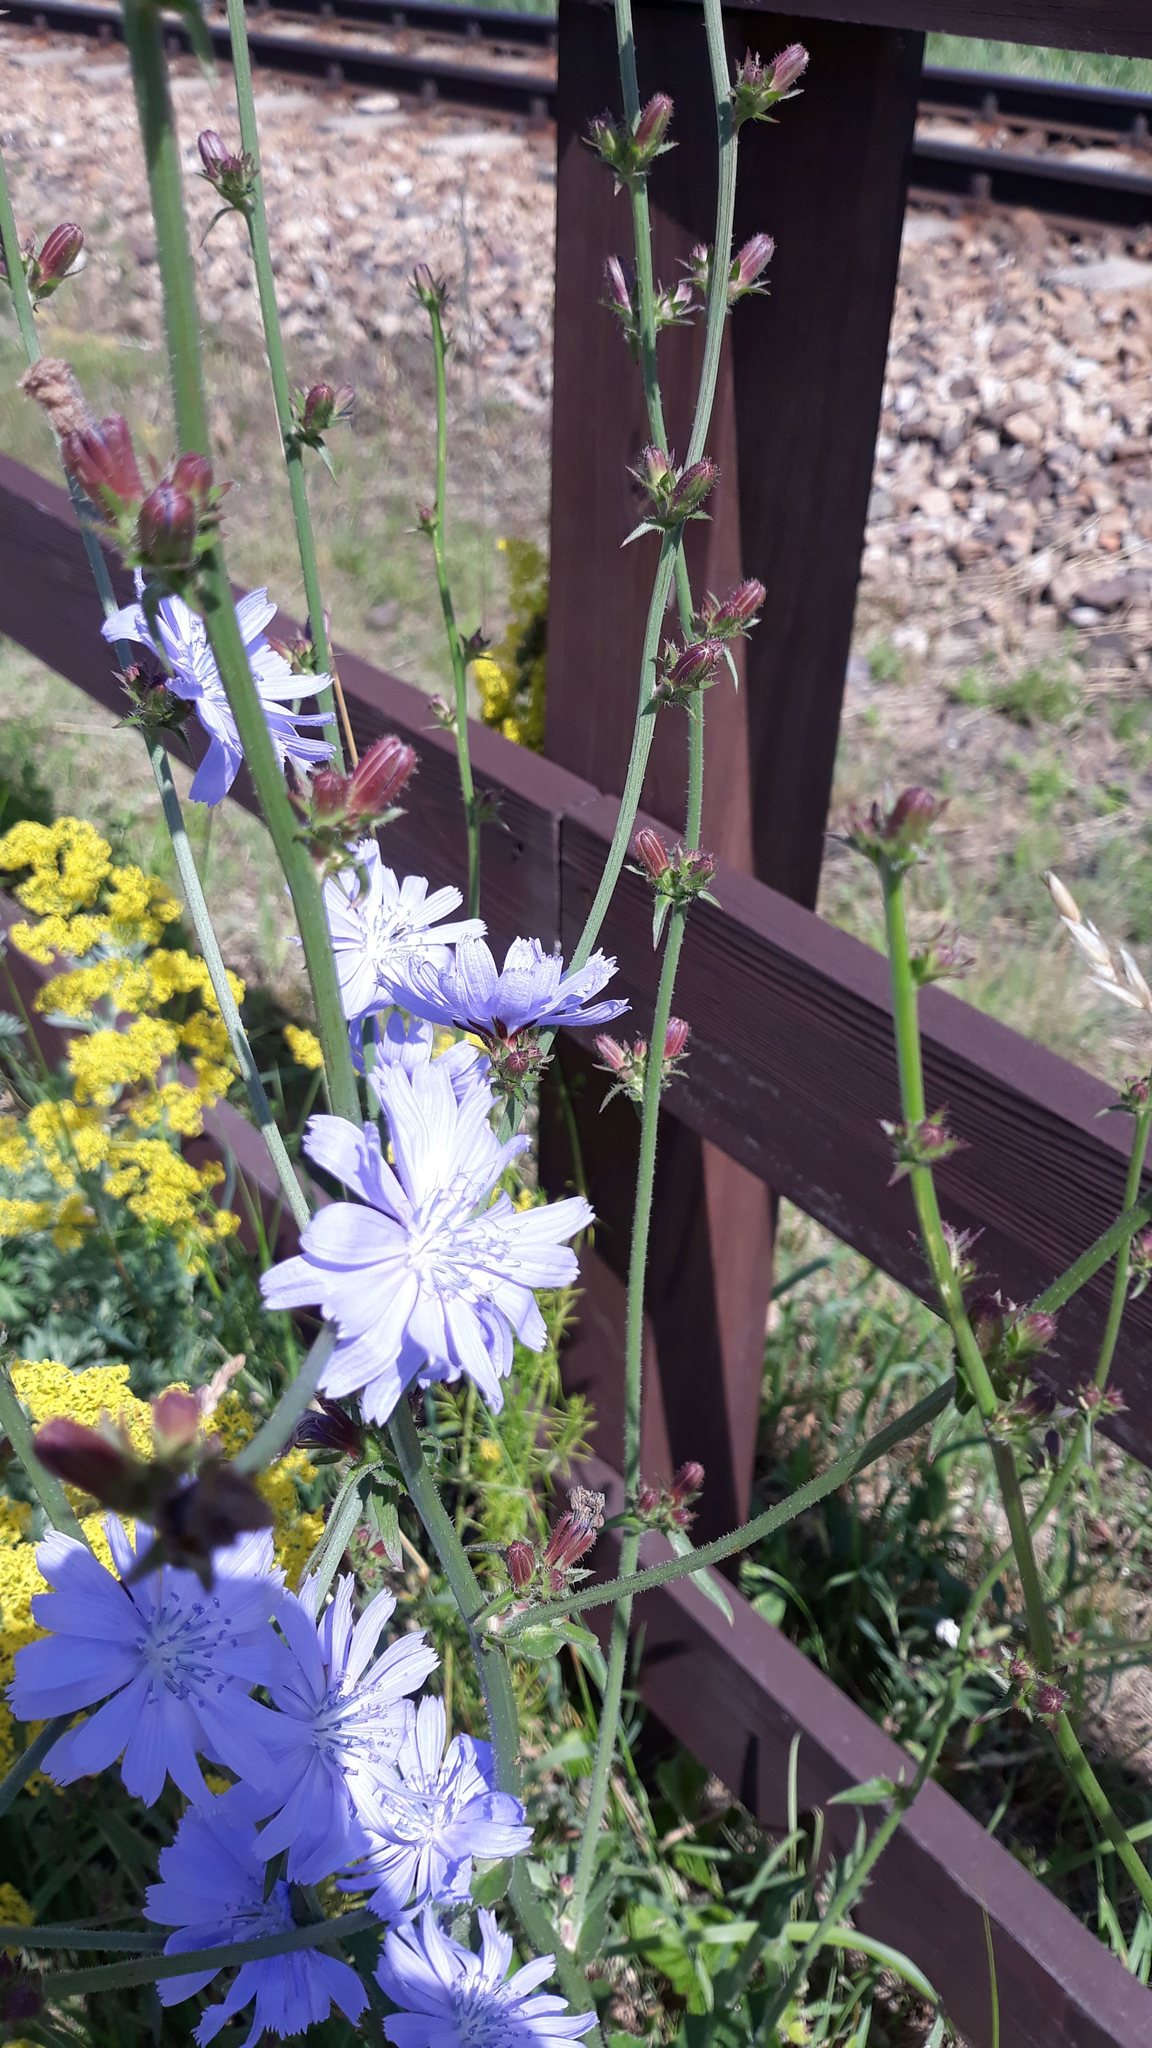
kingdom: Plantae
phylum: Tracheophyta
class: Magnoliopsida
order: Asterales
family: Asteraceae
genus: Cichorium
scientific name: Cichorium intybus
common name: Chicory
